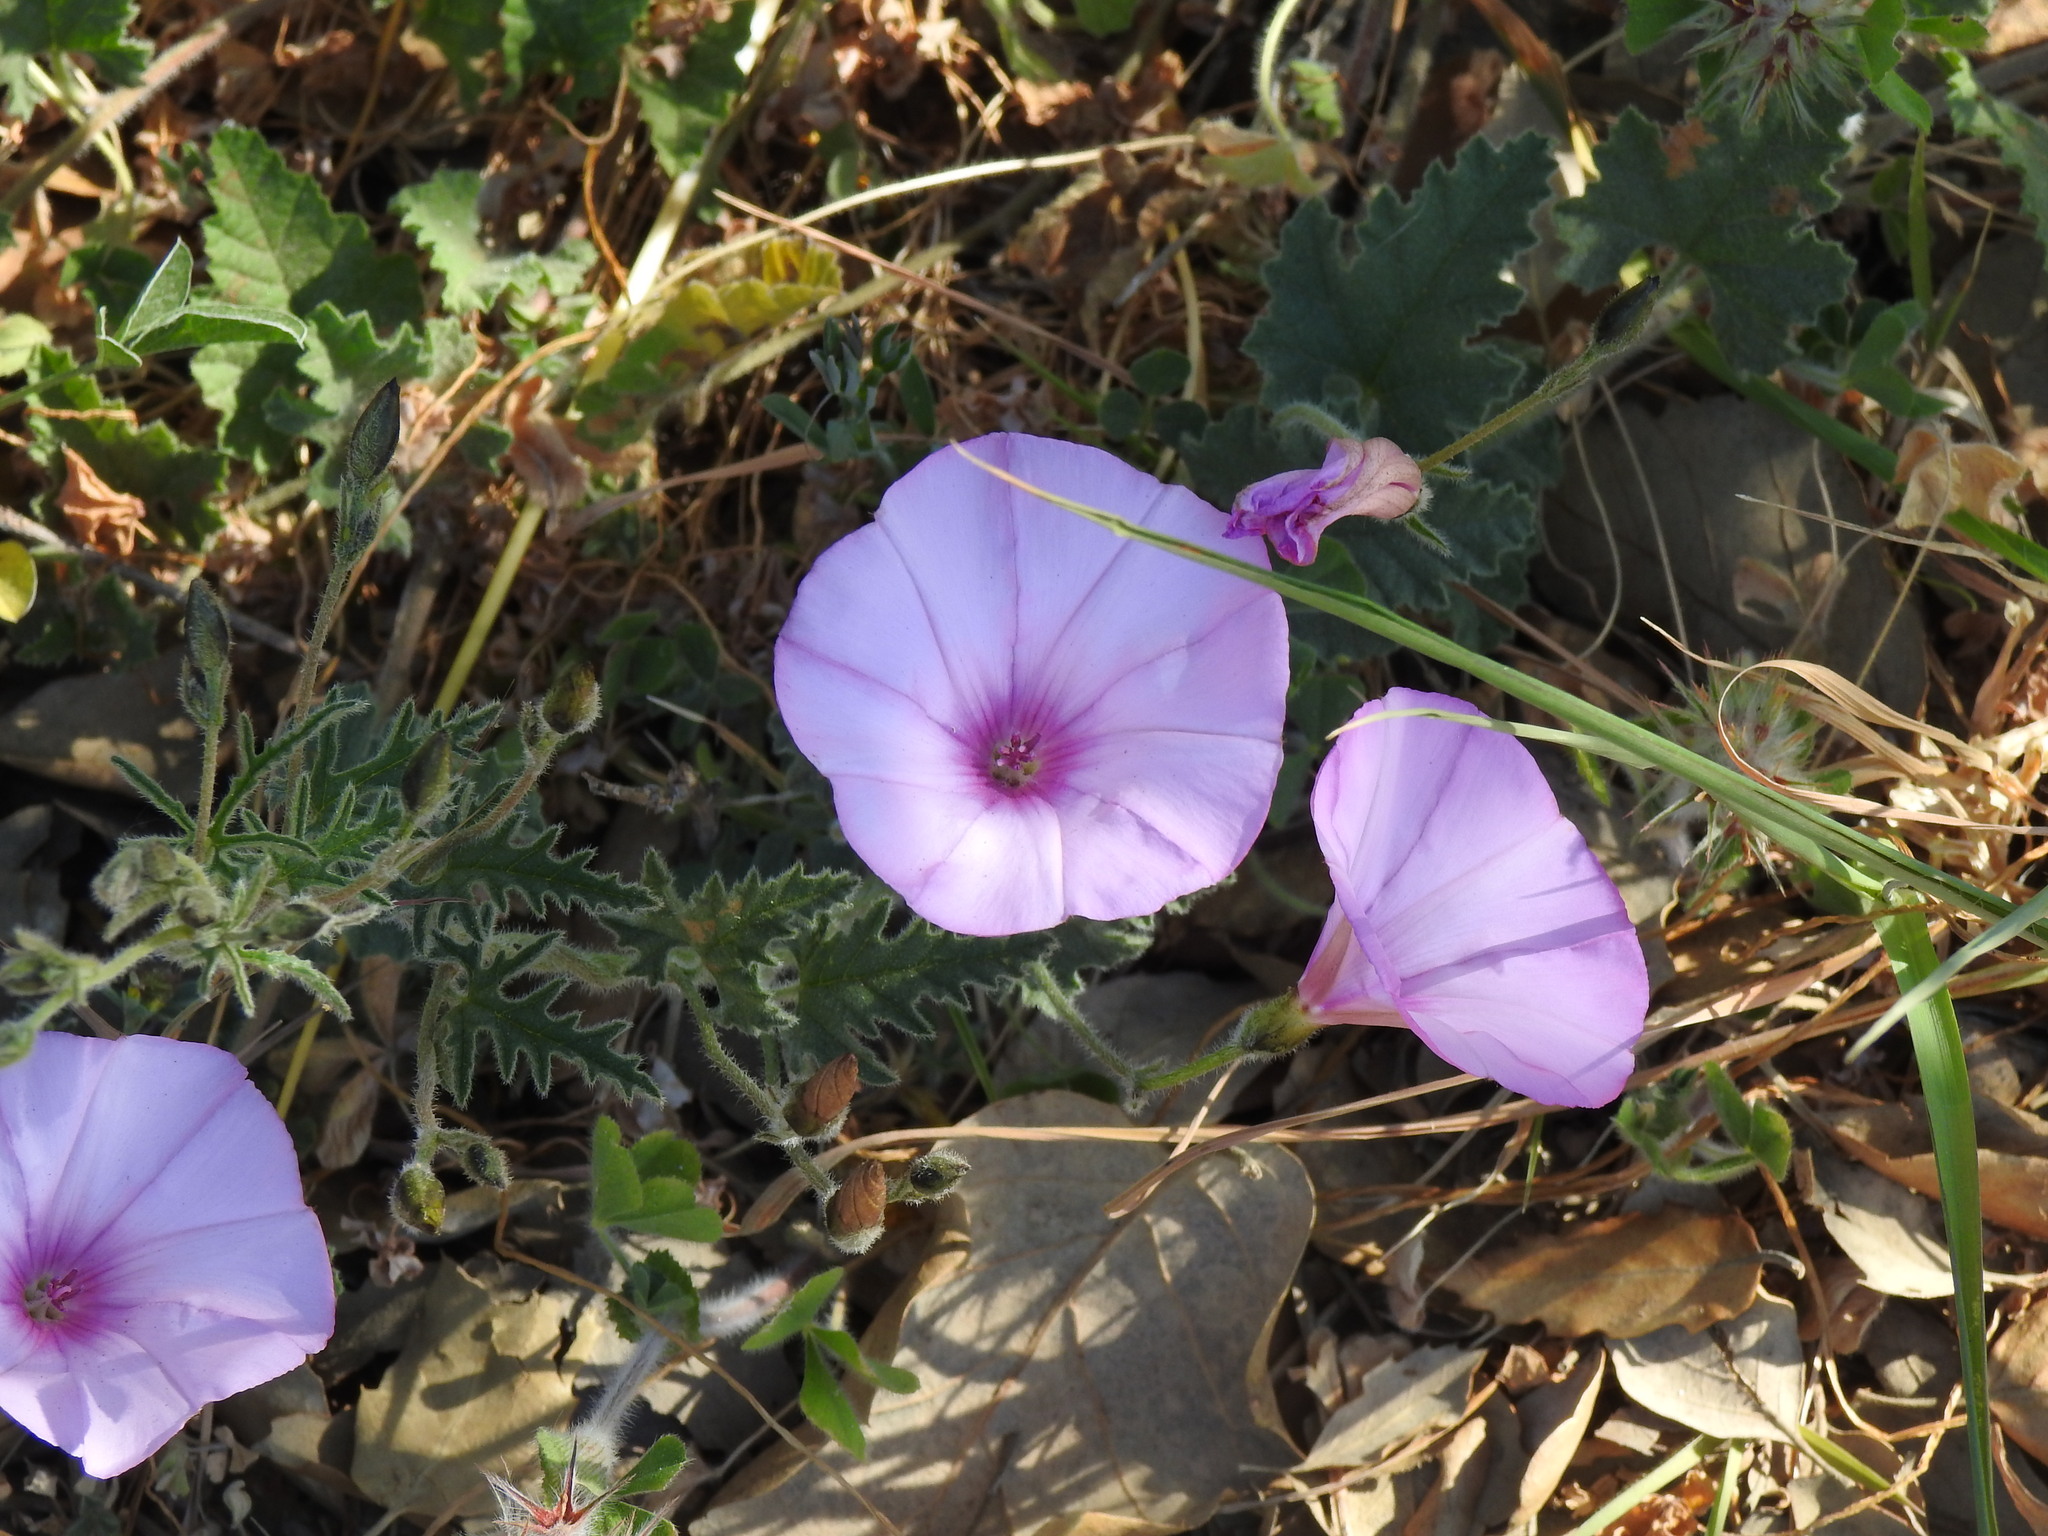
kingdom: Plantae
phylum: Tracheophyta
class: Magnoliopsida
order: Solanales
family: Convolvulaceae
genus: Convolvulus
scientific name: Convolvulus althaeoides
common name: Mallow bindweed
